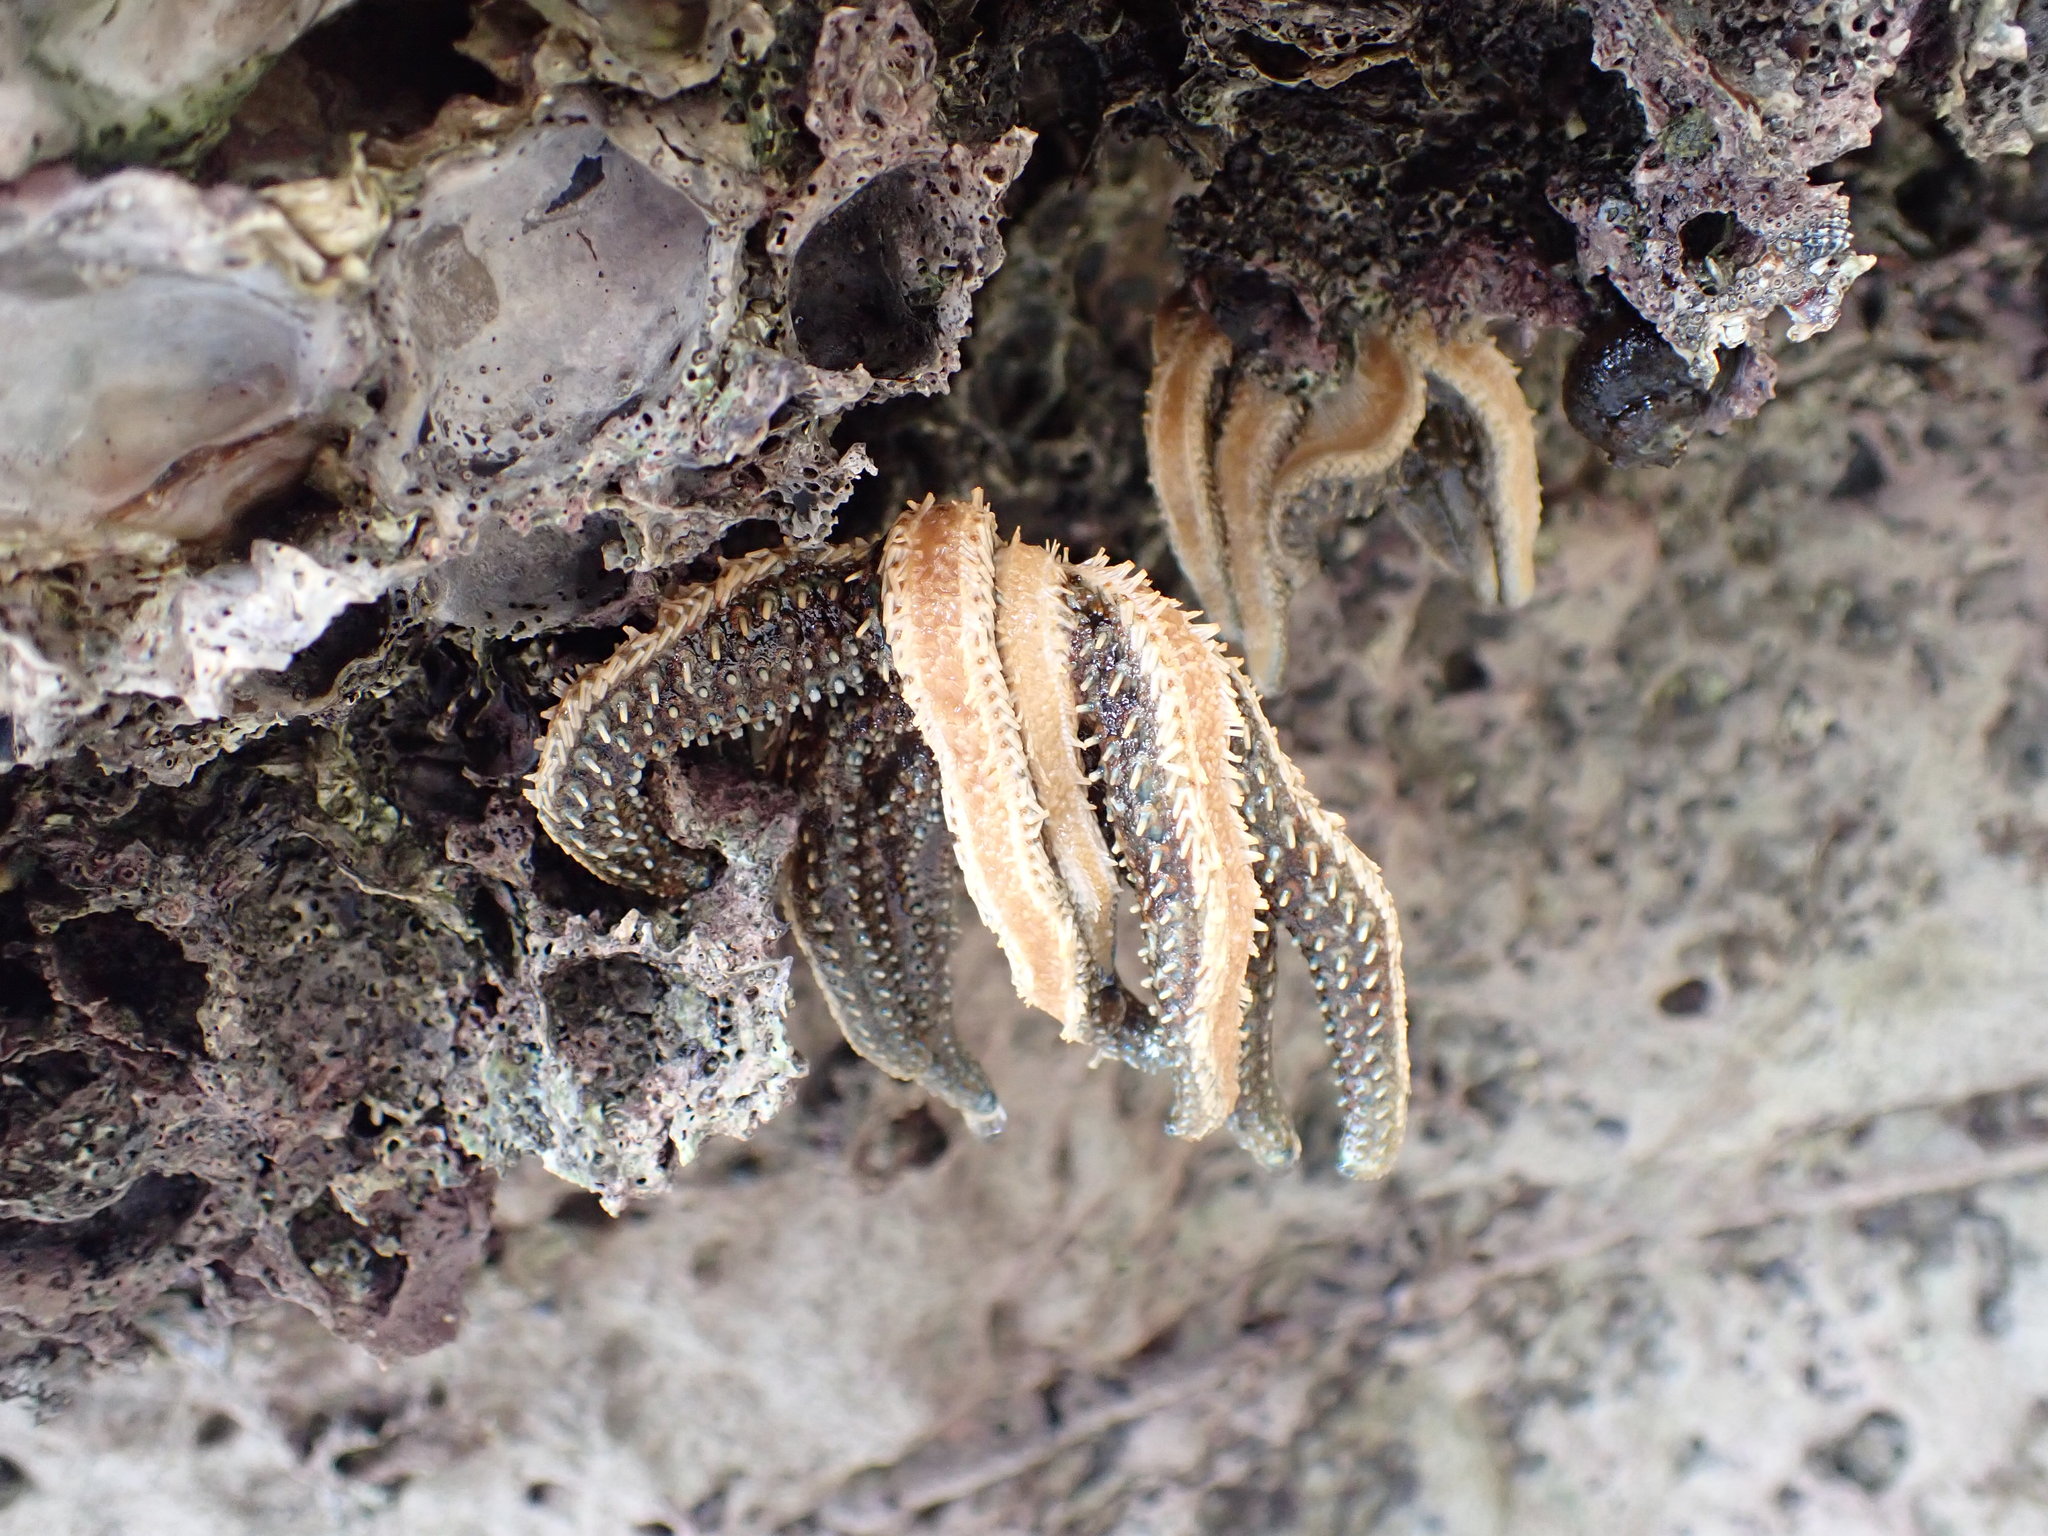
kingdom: Animalia
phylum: Echinodermata
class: Asteroidea
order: Forcipulatida
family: Asteriidae
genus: Coscinasterias
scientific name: Coscinasterias muricata
